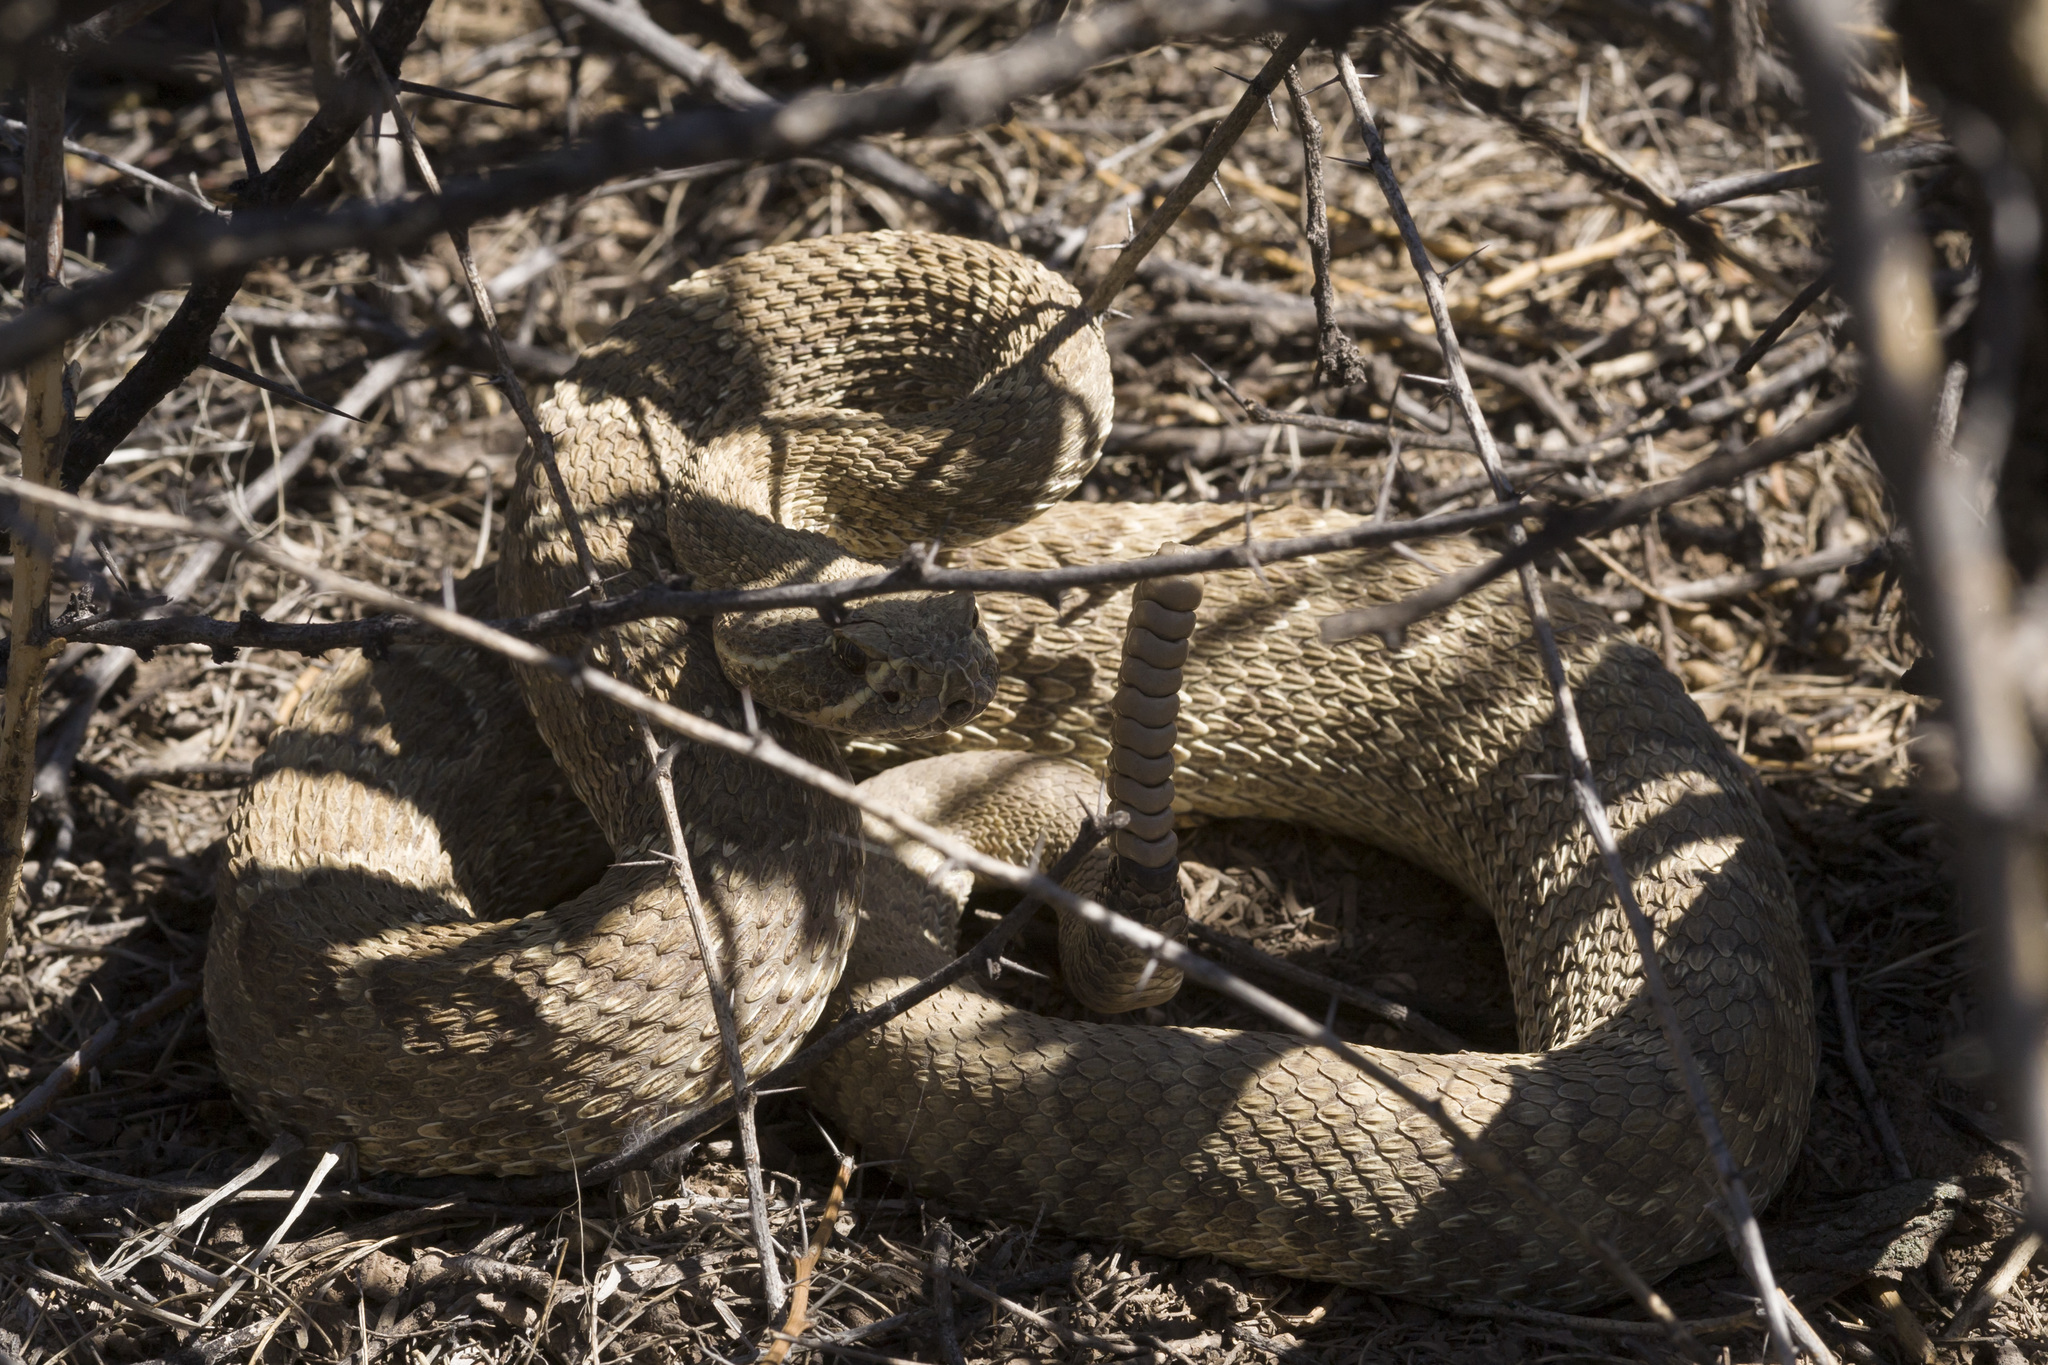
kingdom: Animalia
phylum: Chordata
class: Squamata
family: Viperidae
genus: Crotalus
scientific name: Crotalus viridis
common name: Prairie rattlesnake
